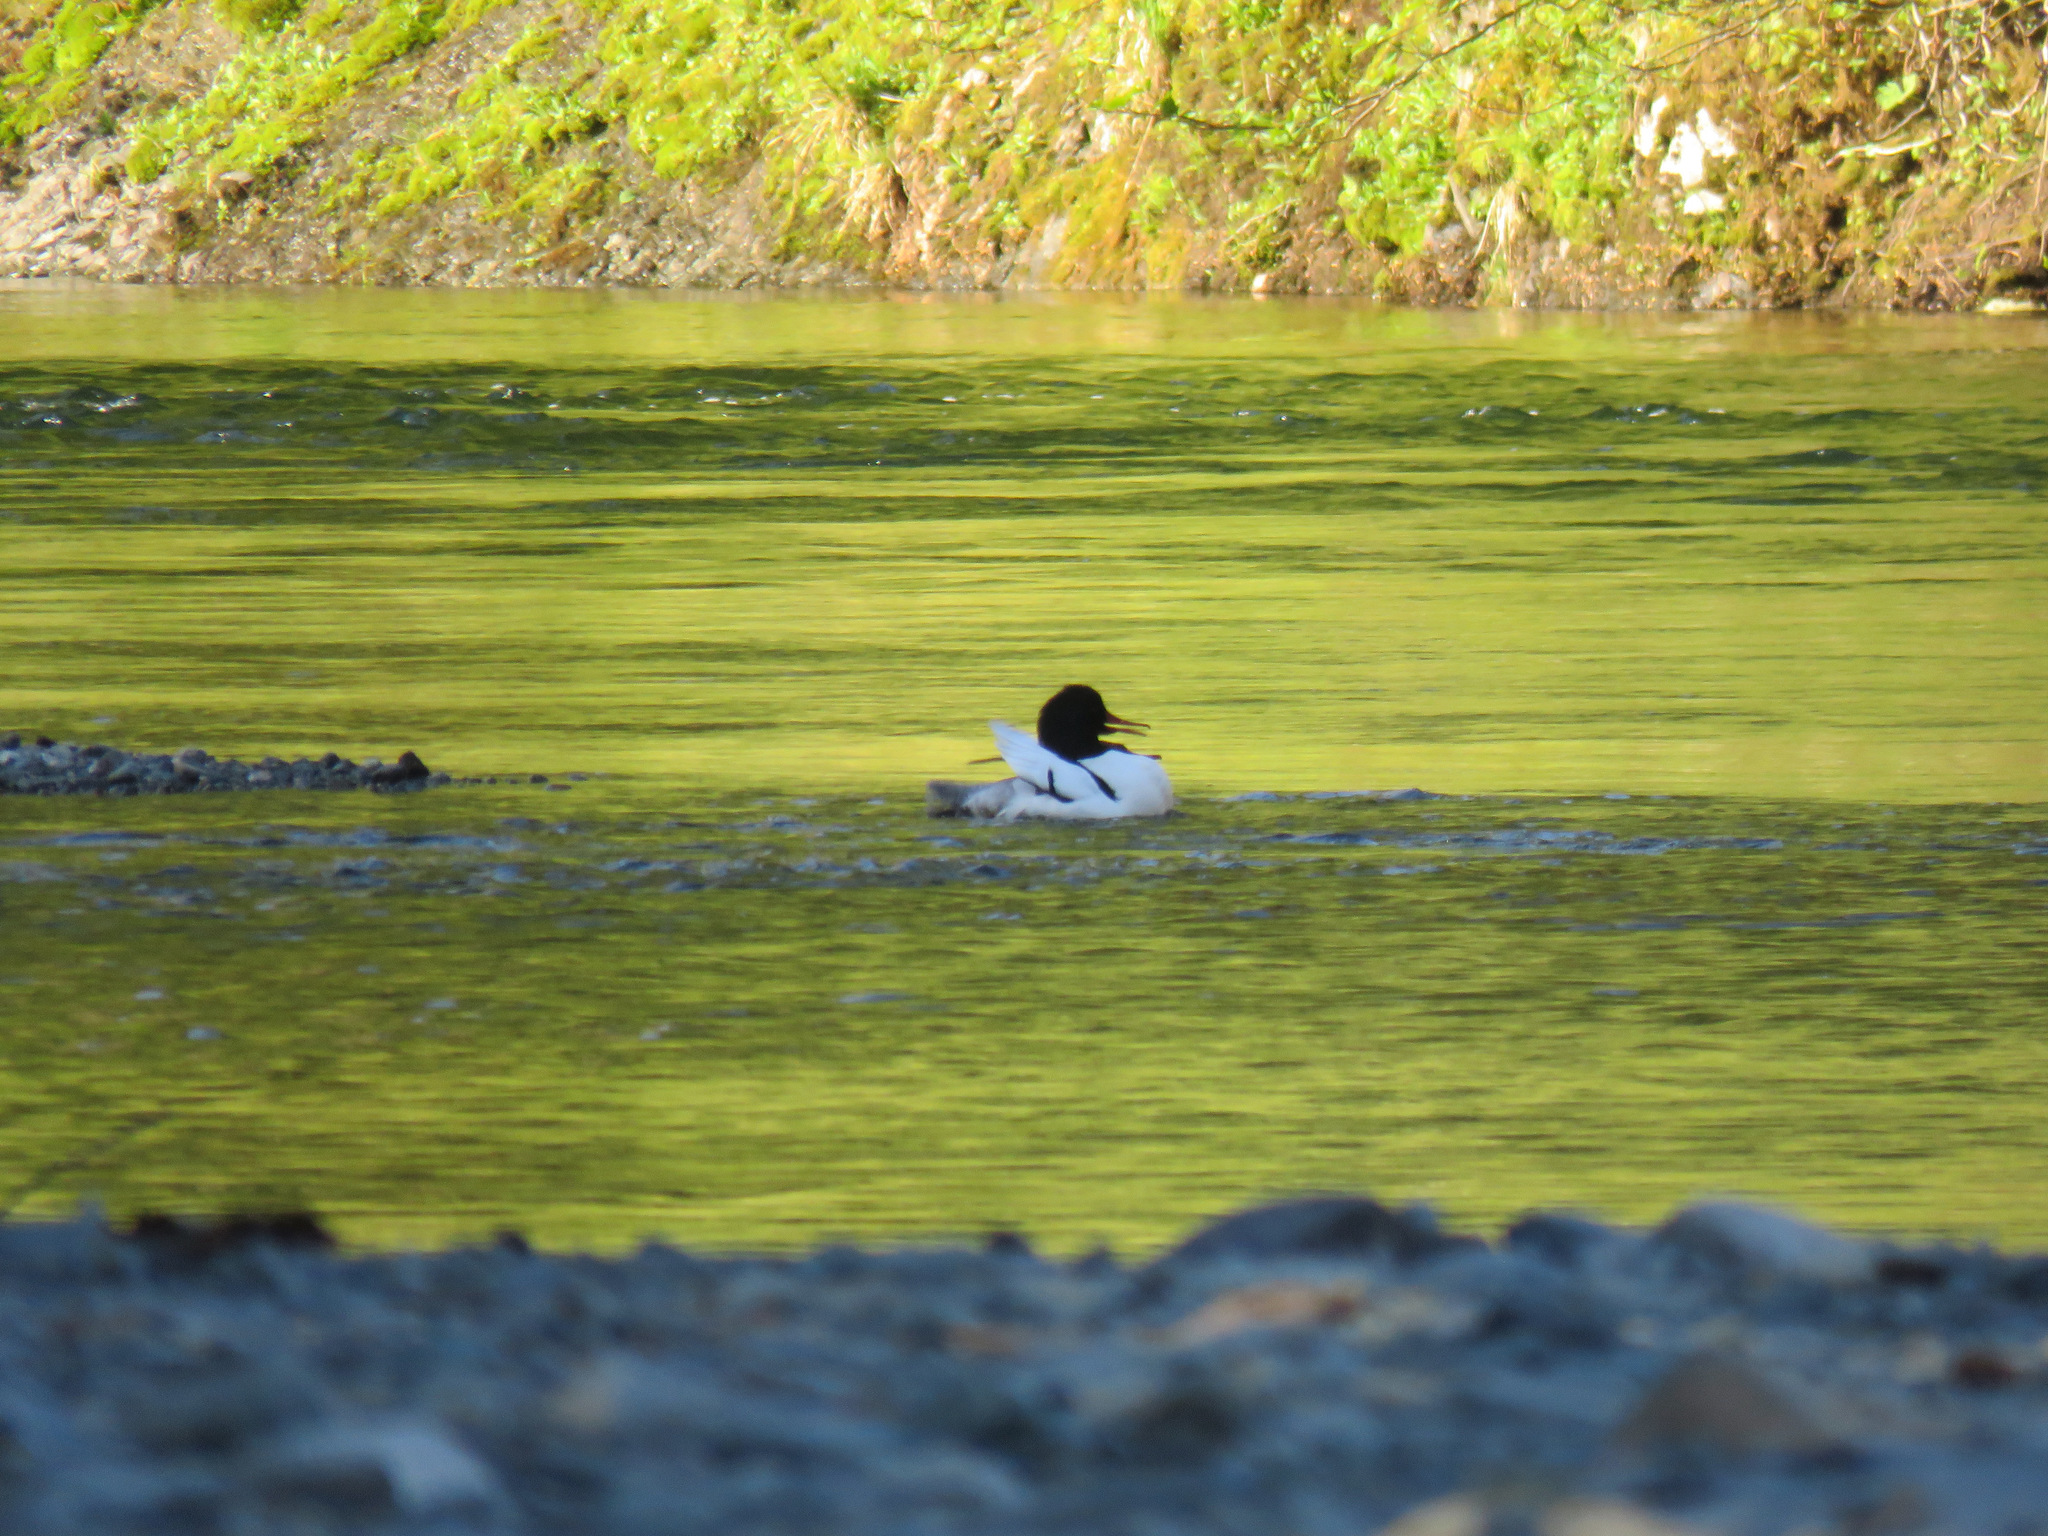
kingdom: Animalia
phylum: Chordata
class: Aves
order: Anseriformes
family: Anatidae
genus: Mergus
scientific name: Mergus merganser
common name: Common merganser
